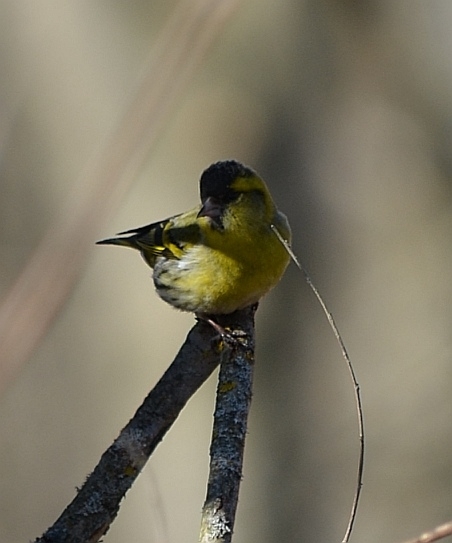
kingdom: Animalia
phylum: Chordata
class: Aves
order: Passeriformes
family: Fringillidae
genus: Spinus
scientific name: Spinus spinus
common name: Eurasian siskin
